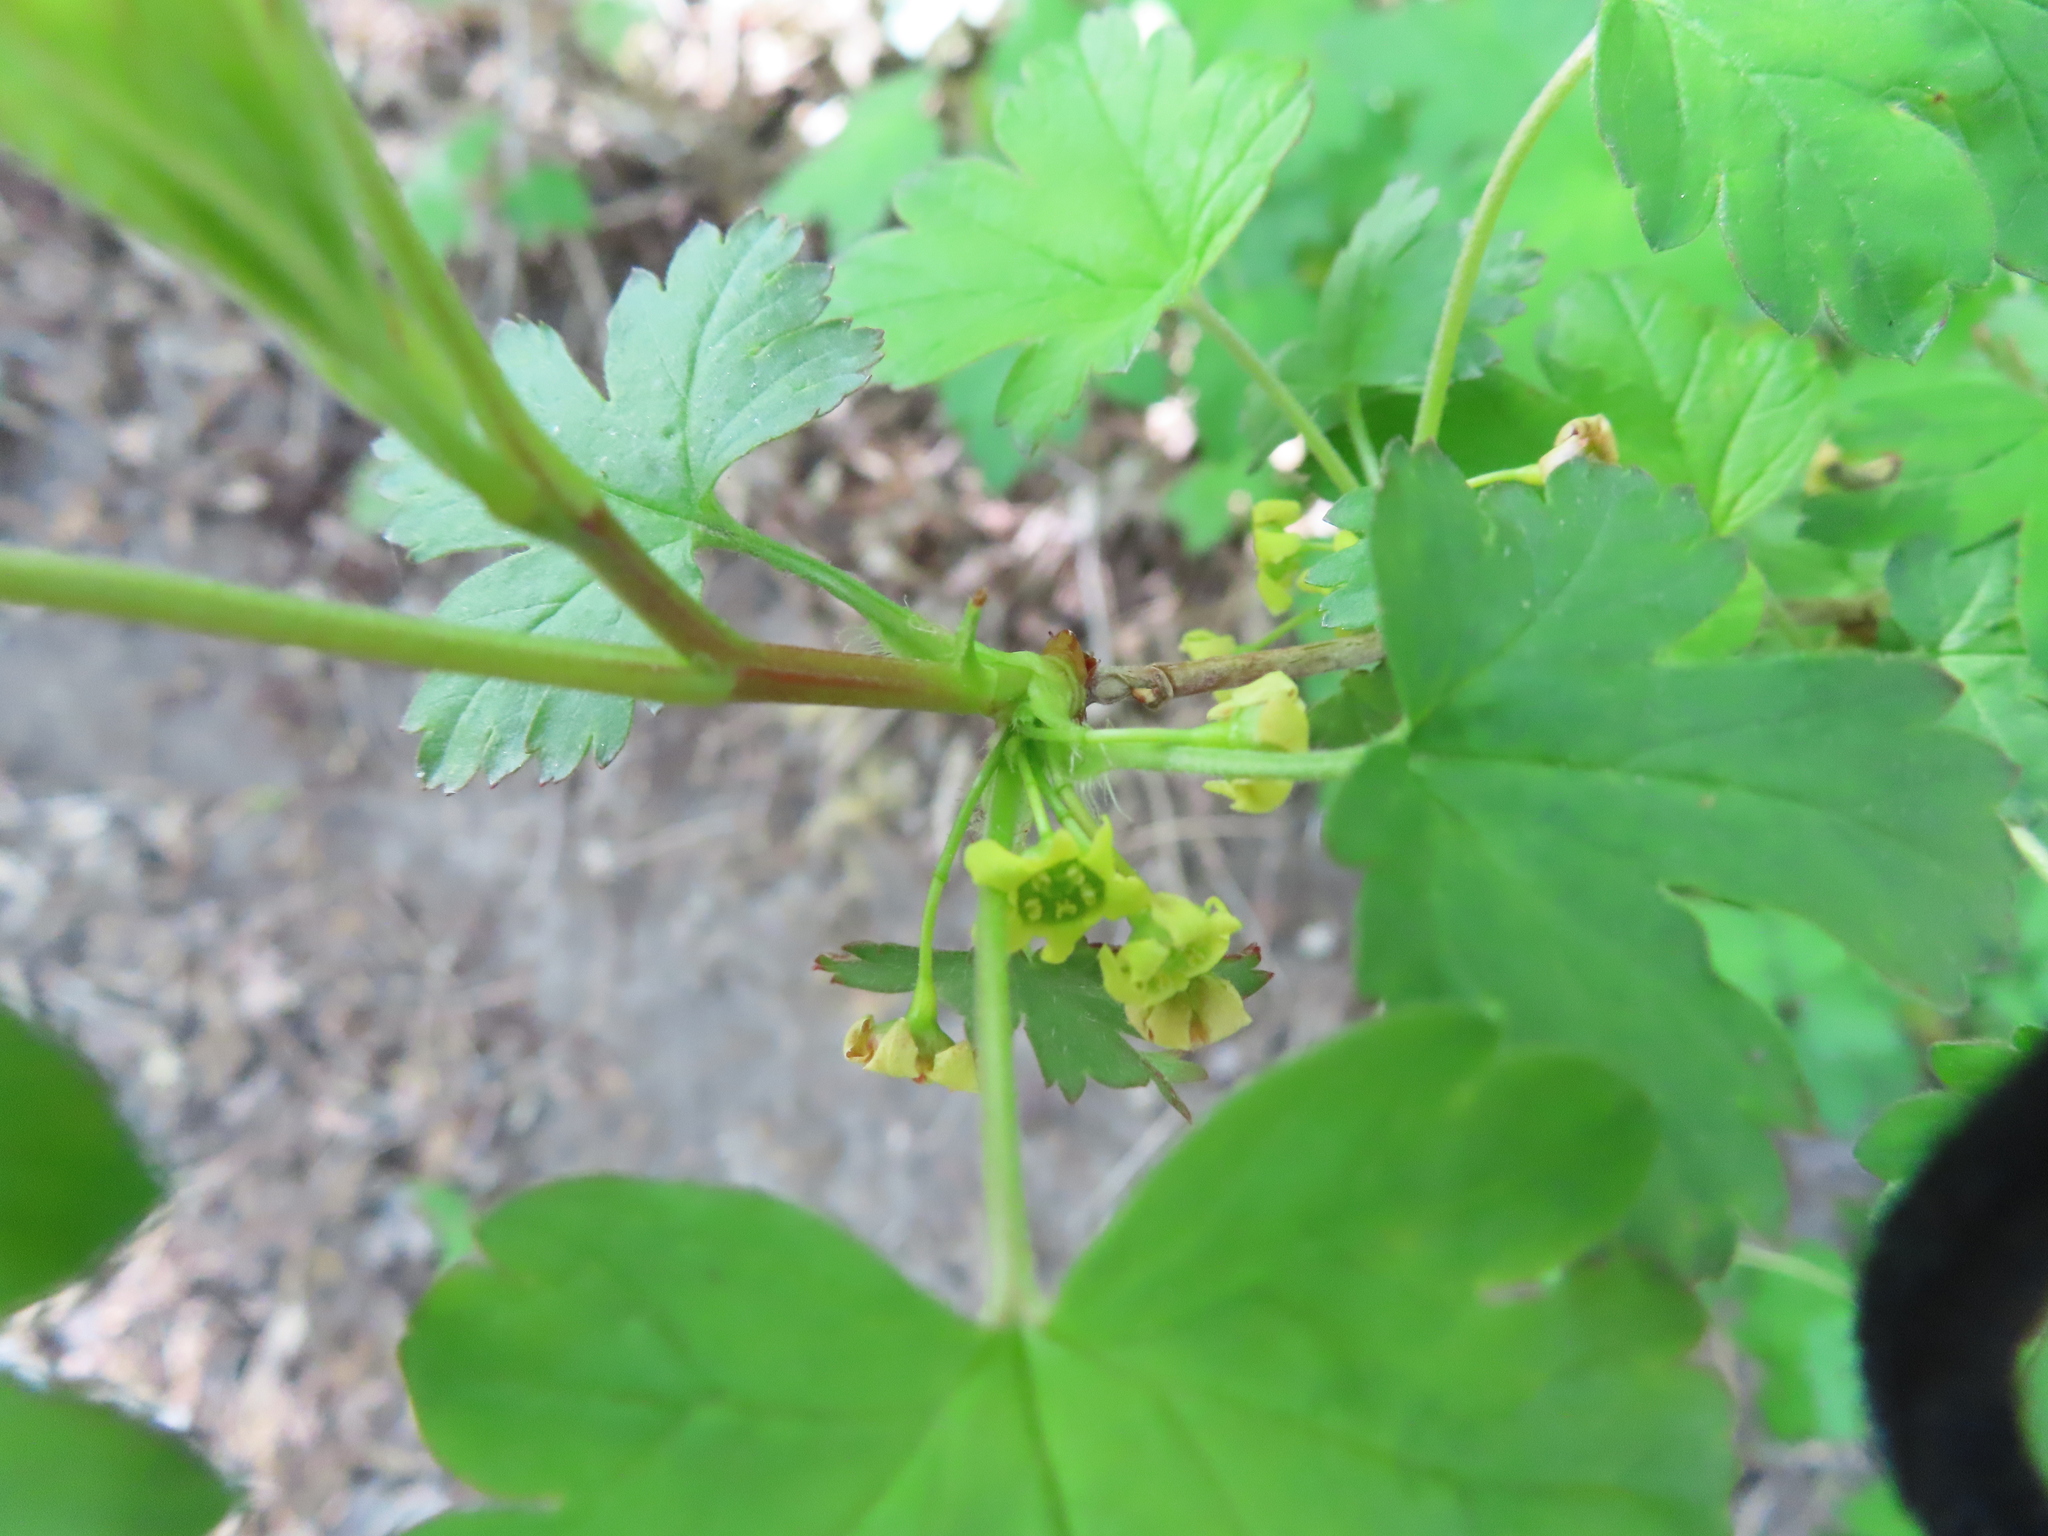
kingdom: Plantae
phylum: Tracheophyta
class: Magnoliopsida
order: Saxifragales
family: Grossulariaceae
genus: Ribes
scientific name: Ribes fasciculatum
